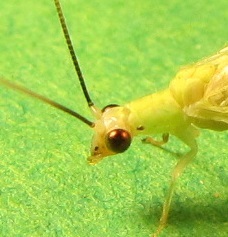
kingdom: Animalia
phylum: Arthropoda
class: Insecta
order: Neuroptera
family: Chrysopidae
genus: Chrysopa
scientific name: Chrysopa nigricornis
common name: Black-horned green lacewing
